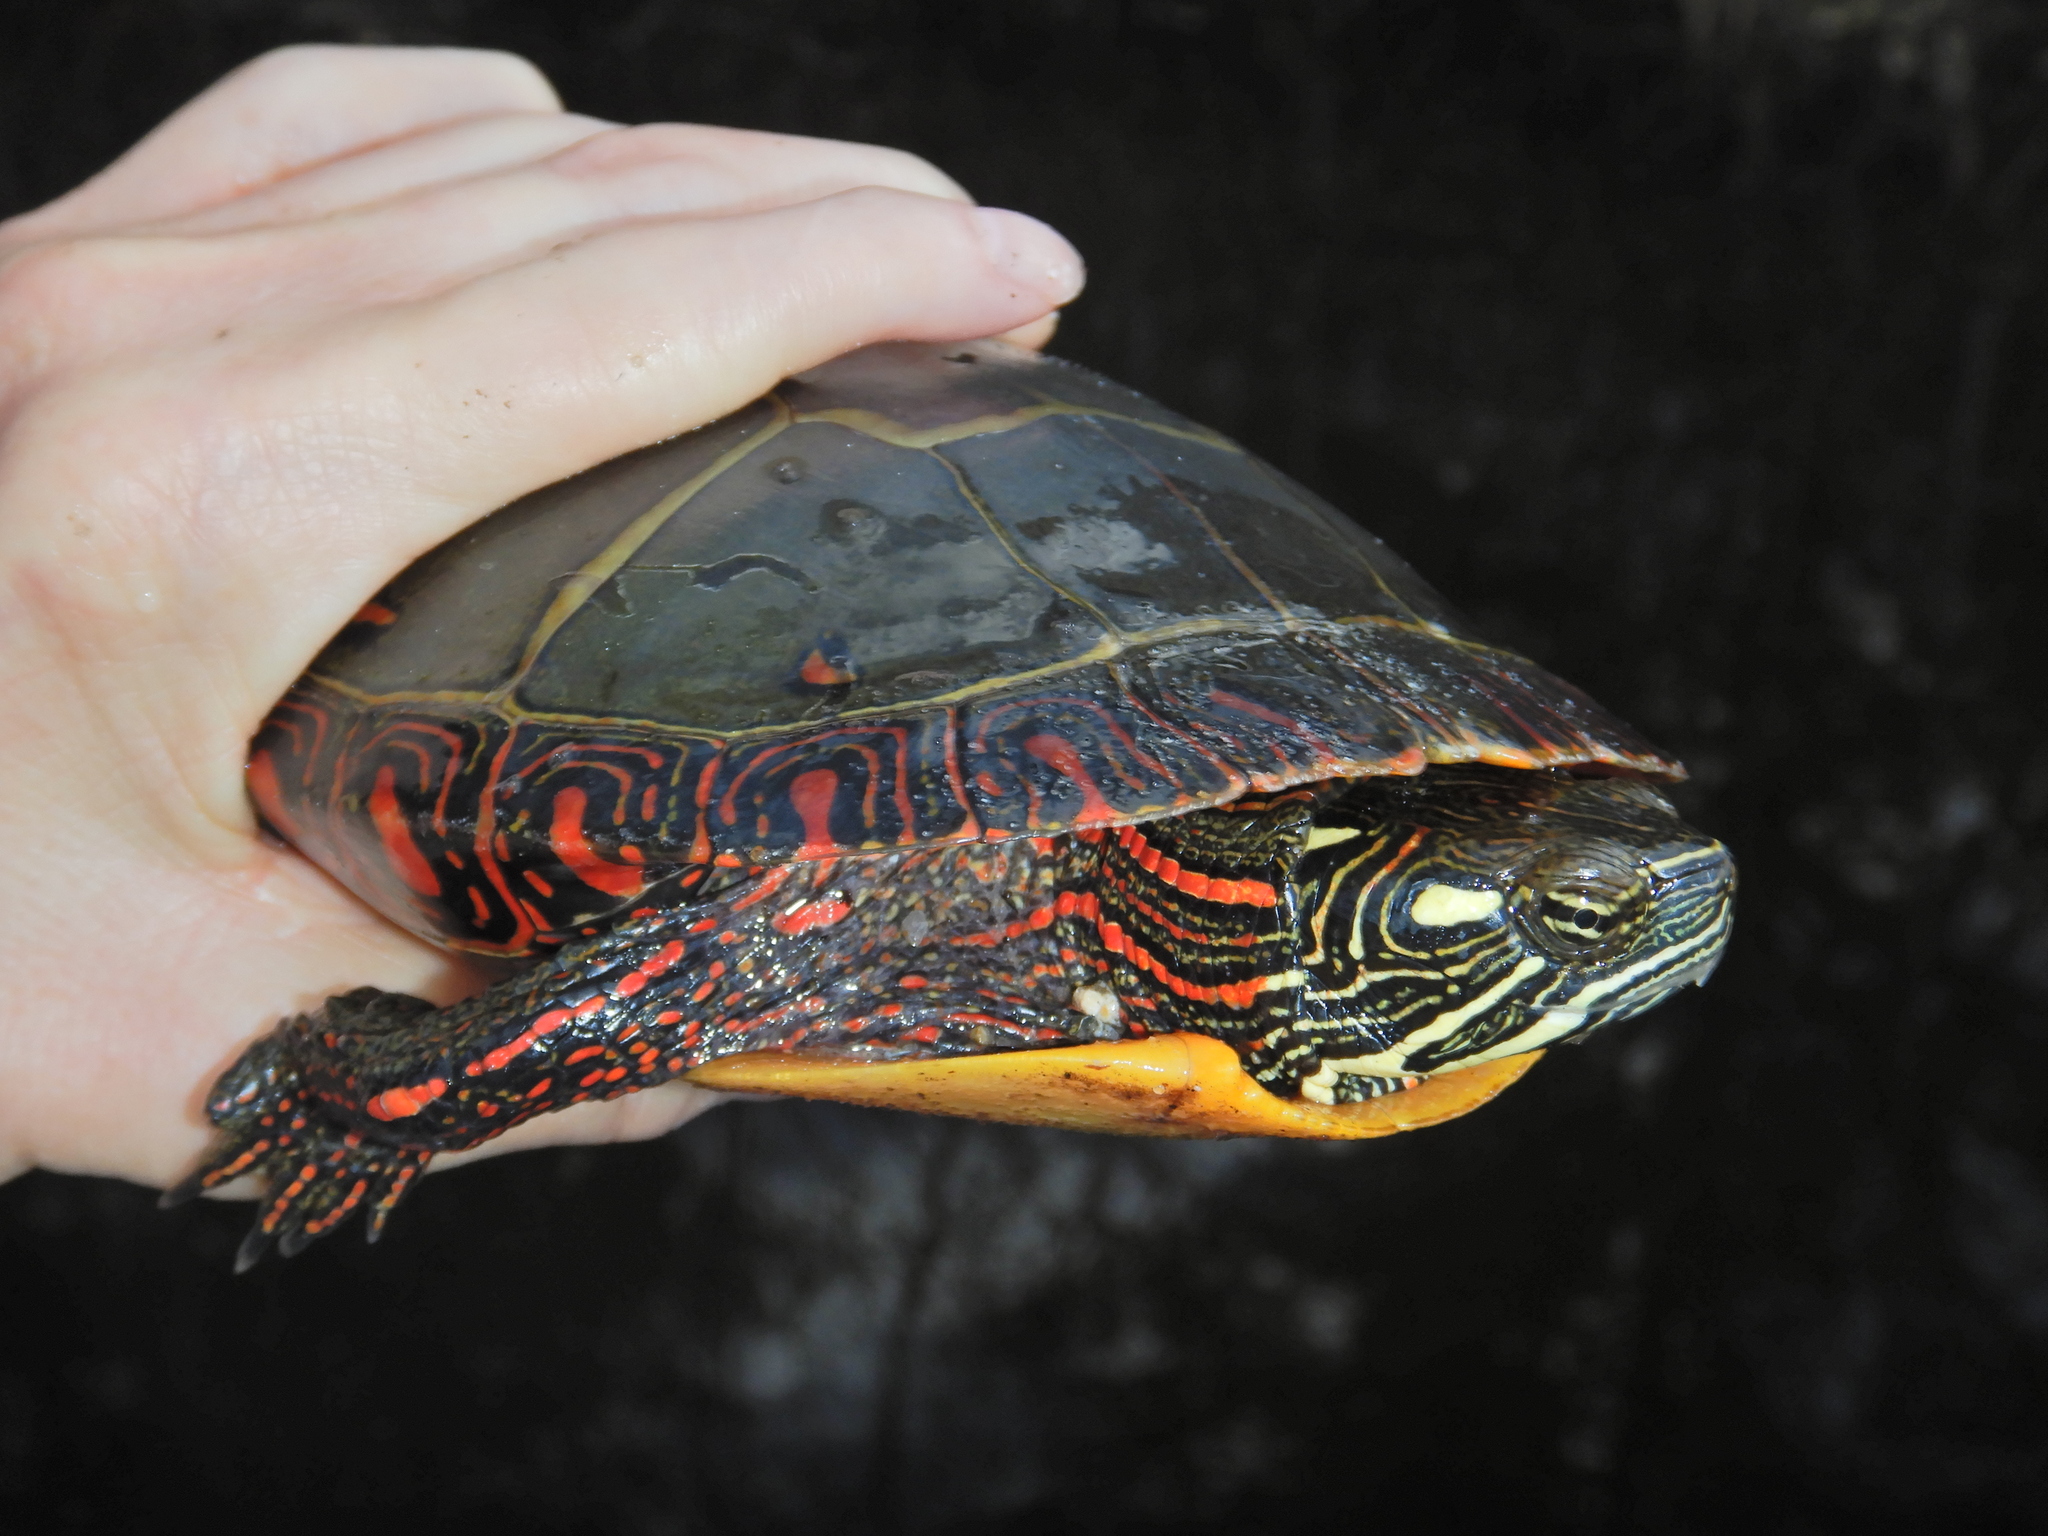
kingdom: Animalia
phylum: Chordata
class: Testudines
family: Emydidae
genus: Chrysemys
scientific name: Chrysemys picta
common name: Painted turtle
